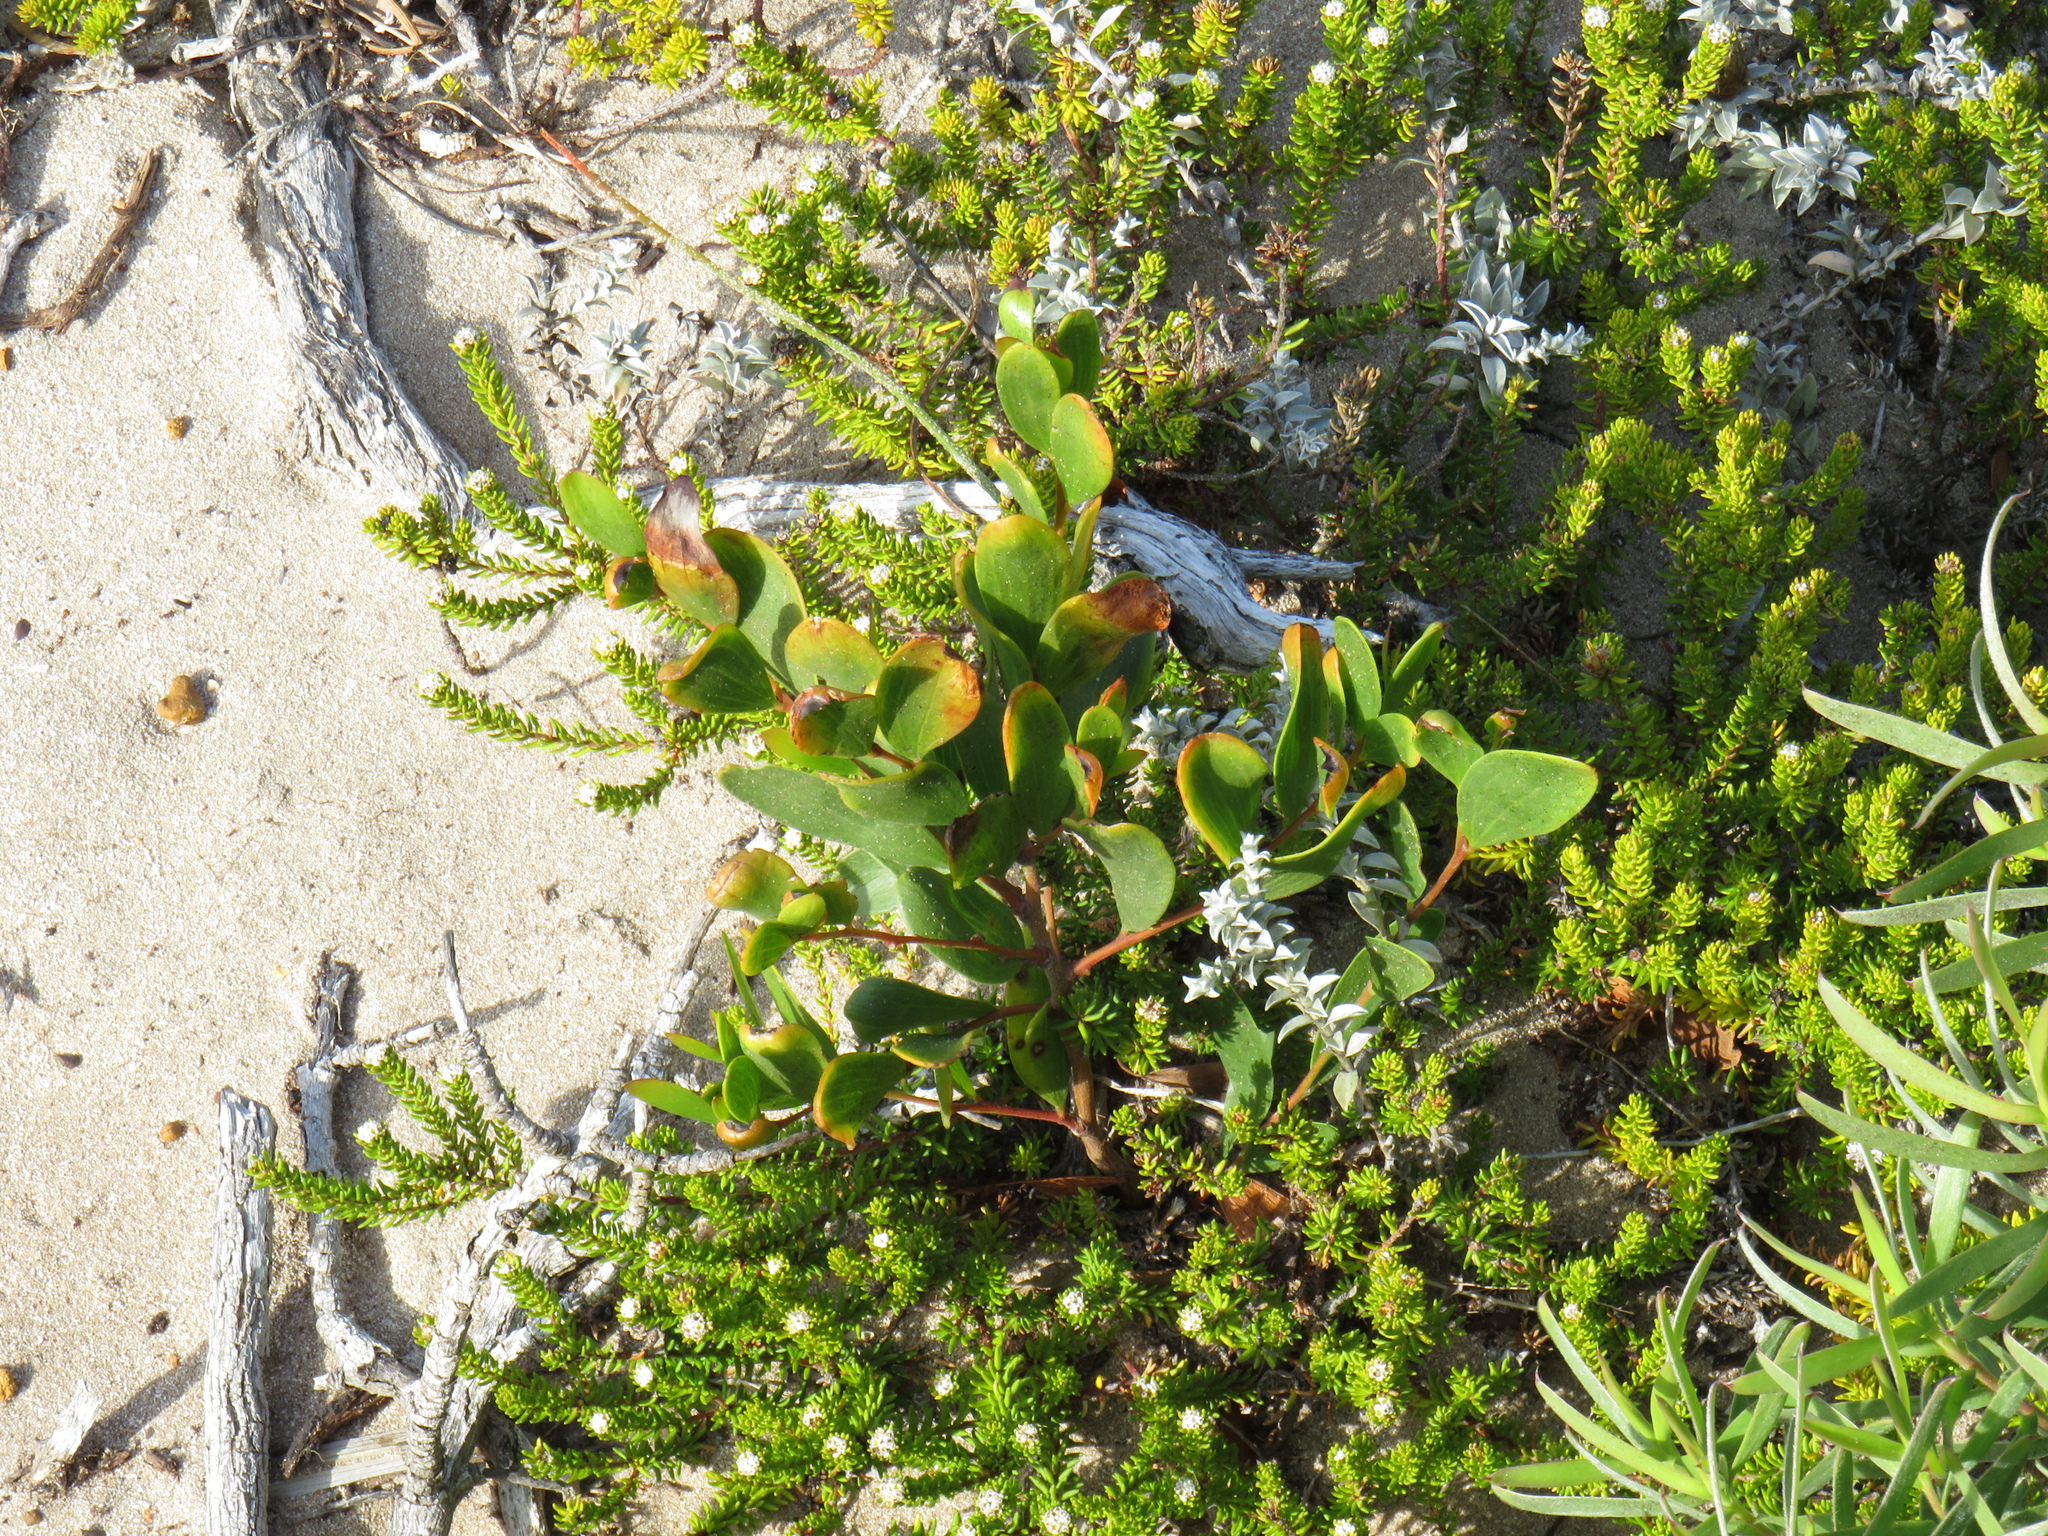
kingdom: Plantae
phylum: Tracheophyta
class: Magnoliopsida
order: Fabales
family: Fabaceae
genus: Acacia
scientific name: Acacia cyclops
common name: Coastal wattle
